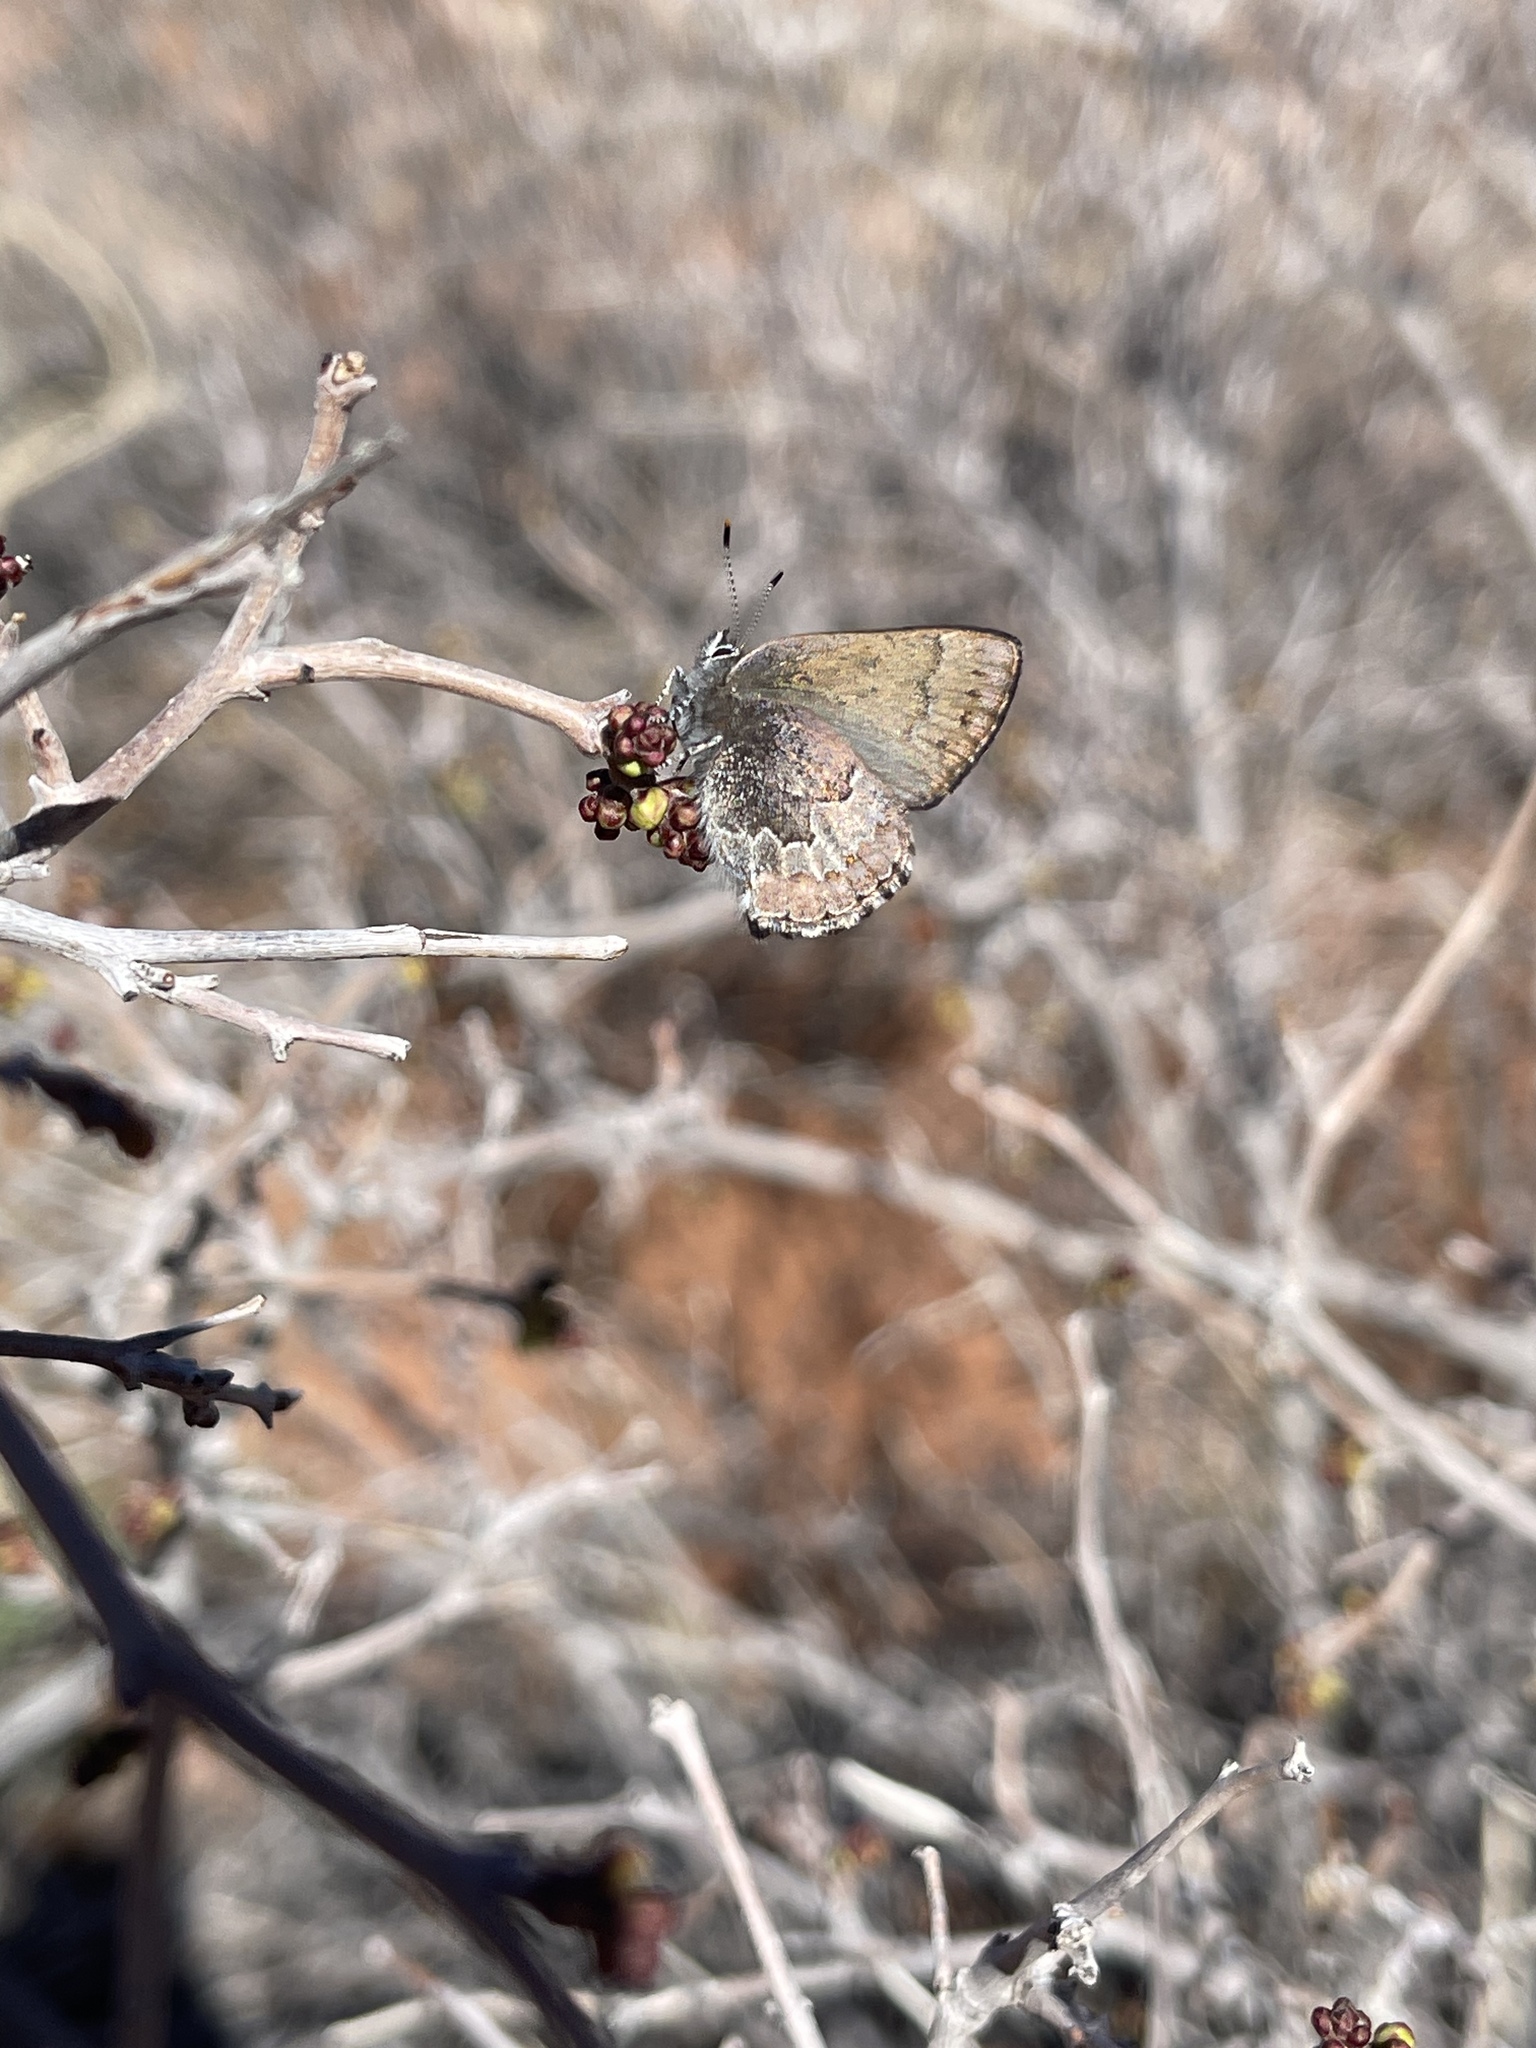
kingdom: Animalia
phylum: Arthropoda
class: Insecta
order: Lepidoptera
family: Lycaenidae
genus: Callophrys
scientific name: Callophrys fotis
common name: Desert elfin
